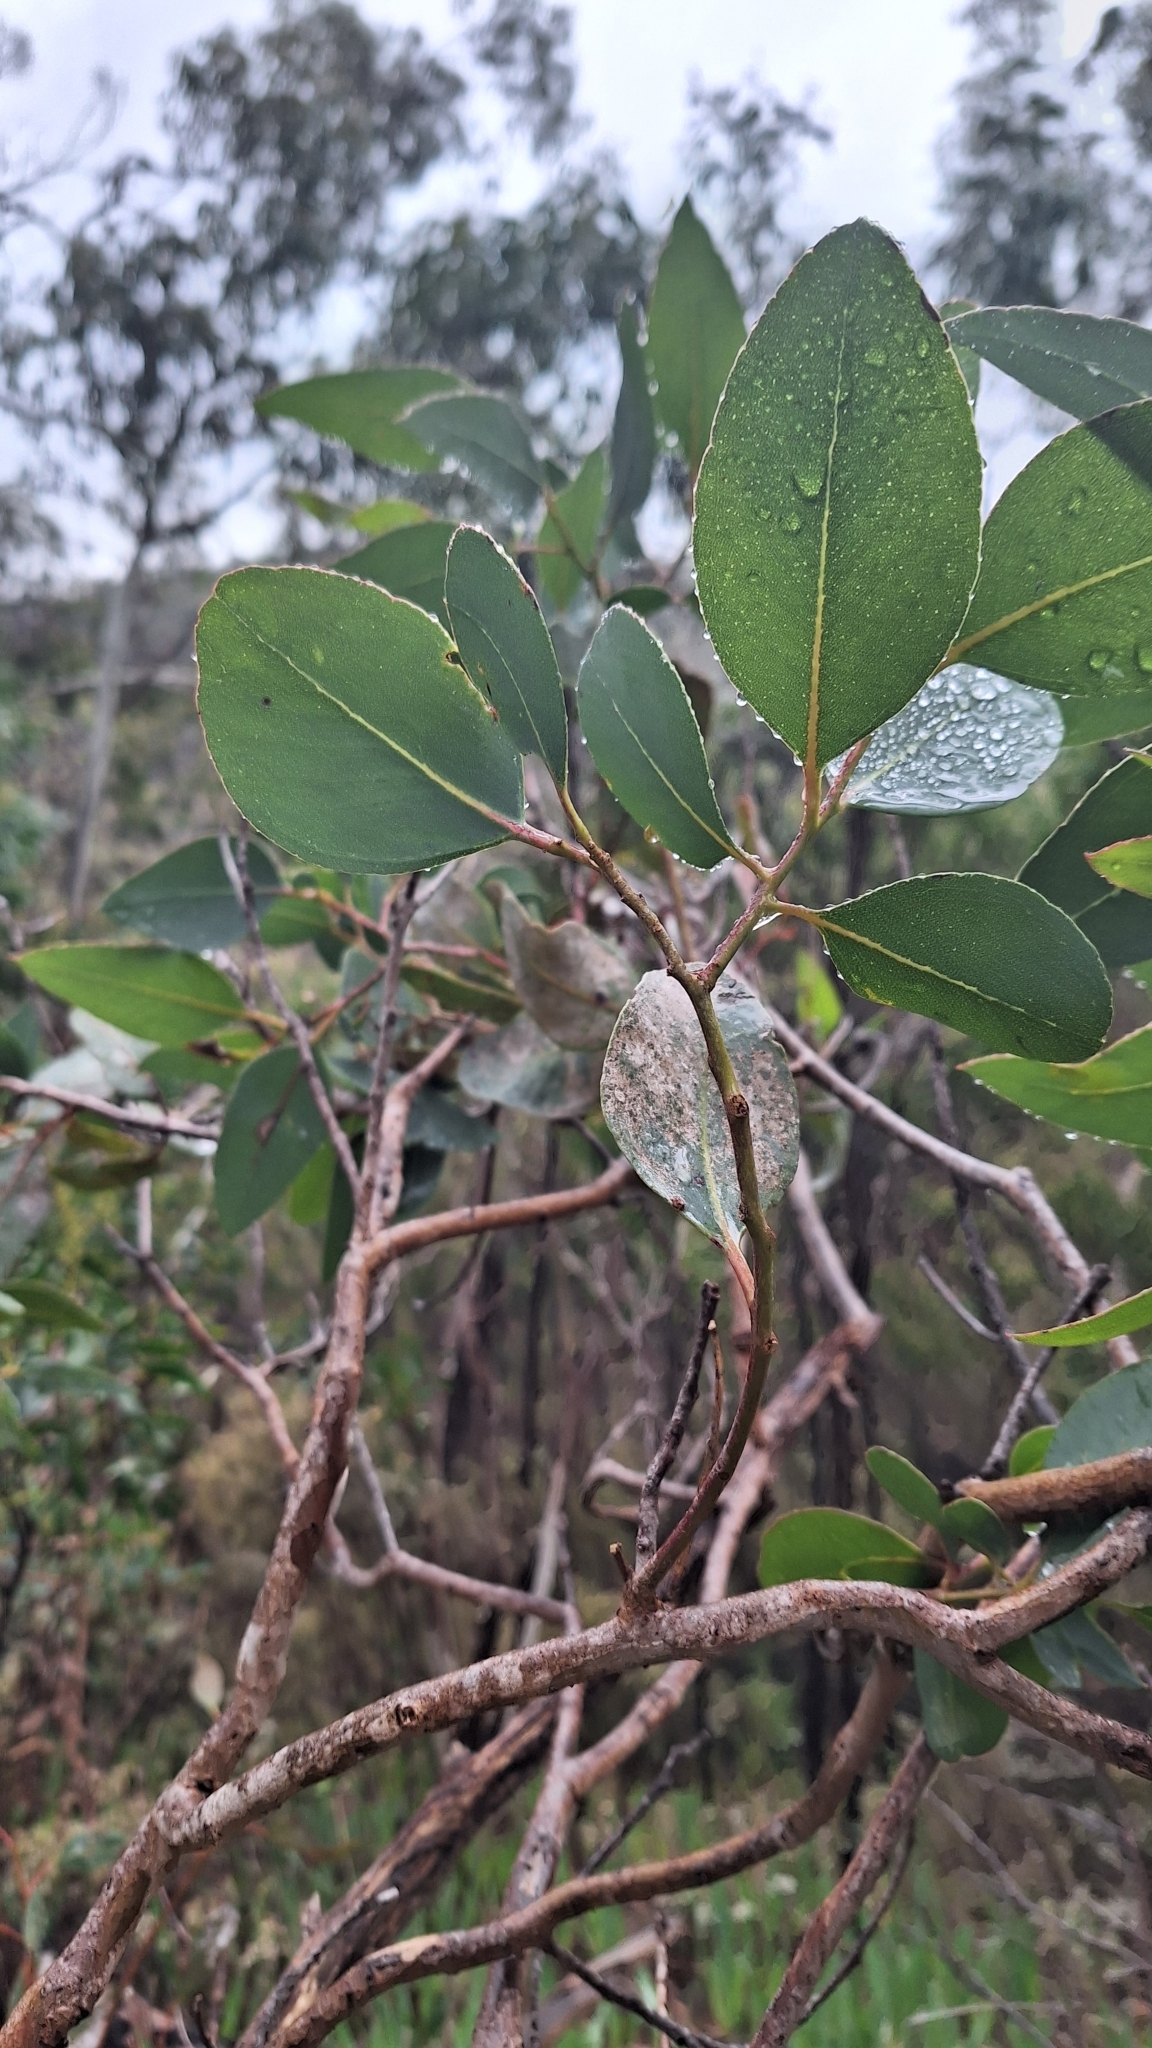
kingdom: Plantae
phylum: Tracheophyta
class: Magnoliopsida
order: Myrtales
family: Myrtaceae
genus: Eucalyptus
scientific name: Eucalyptus cosmophylla
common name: Bog-gum
